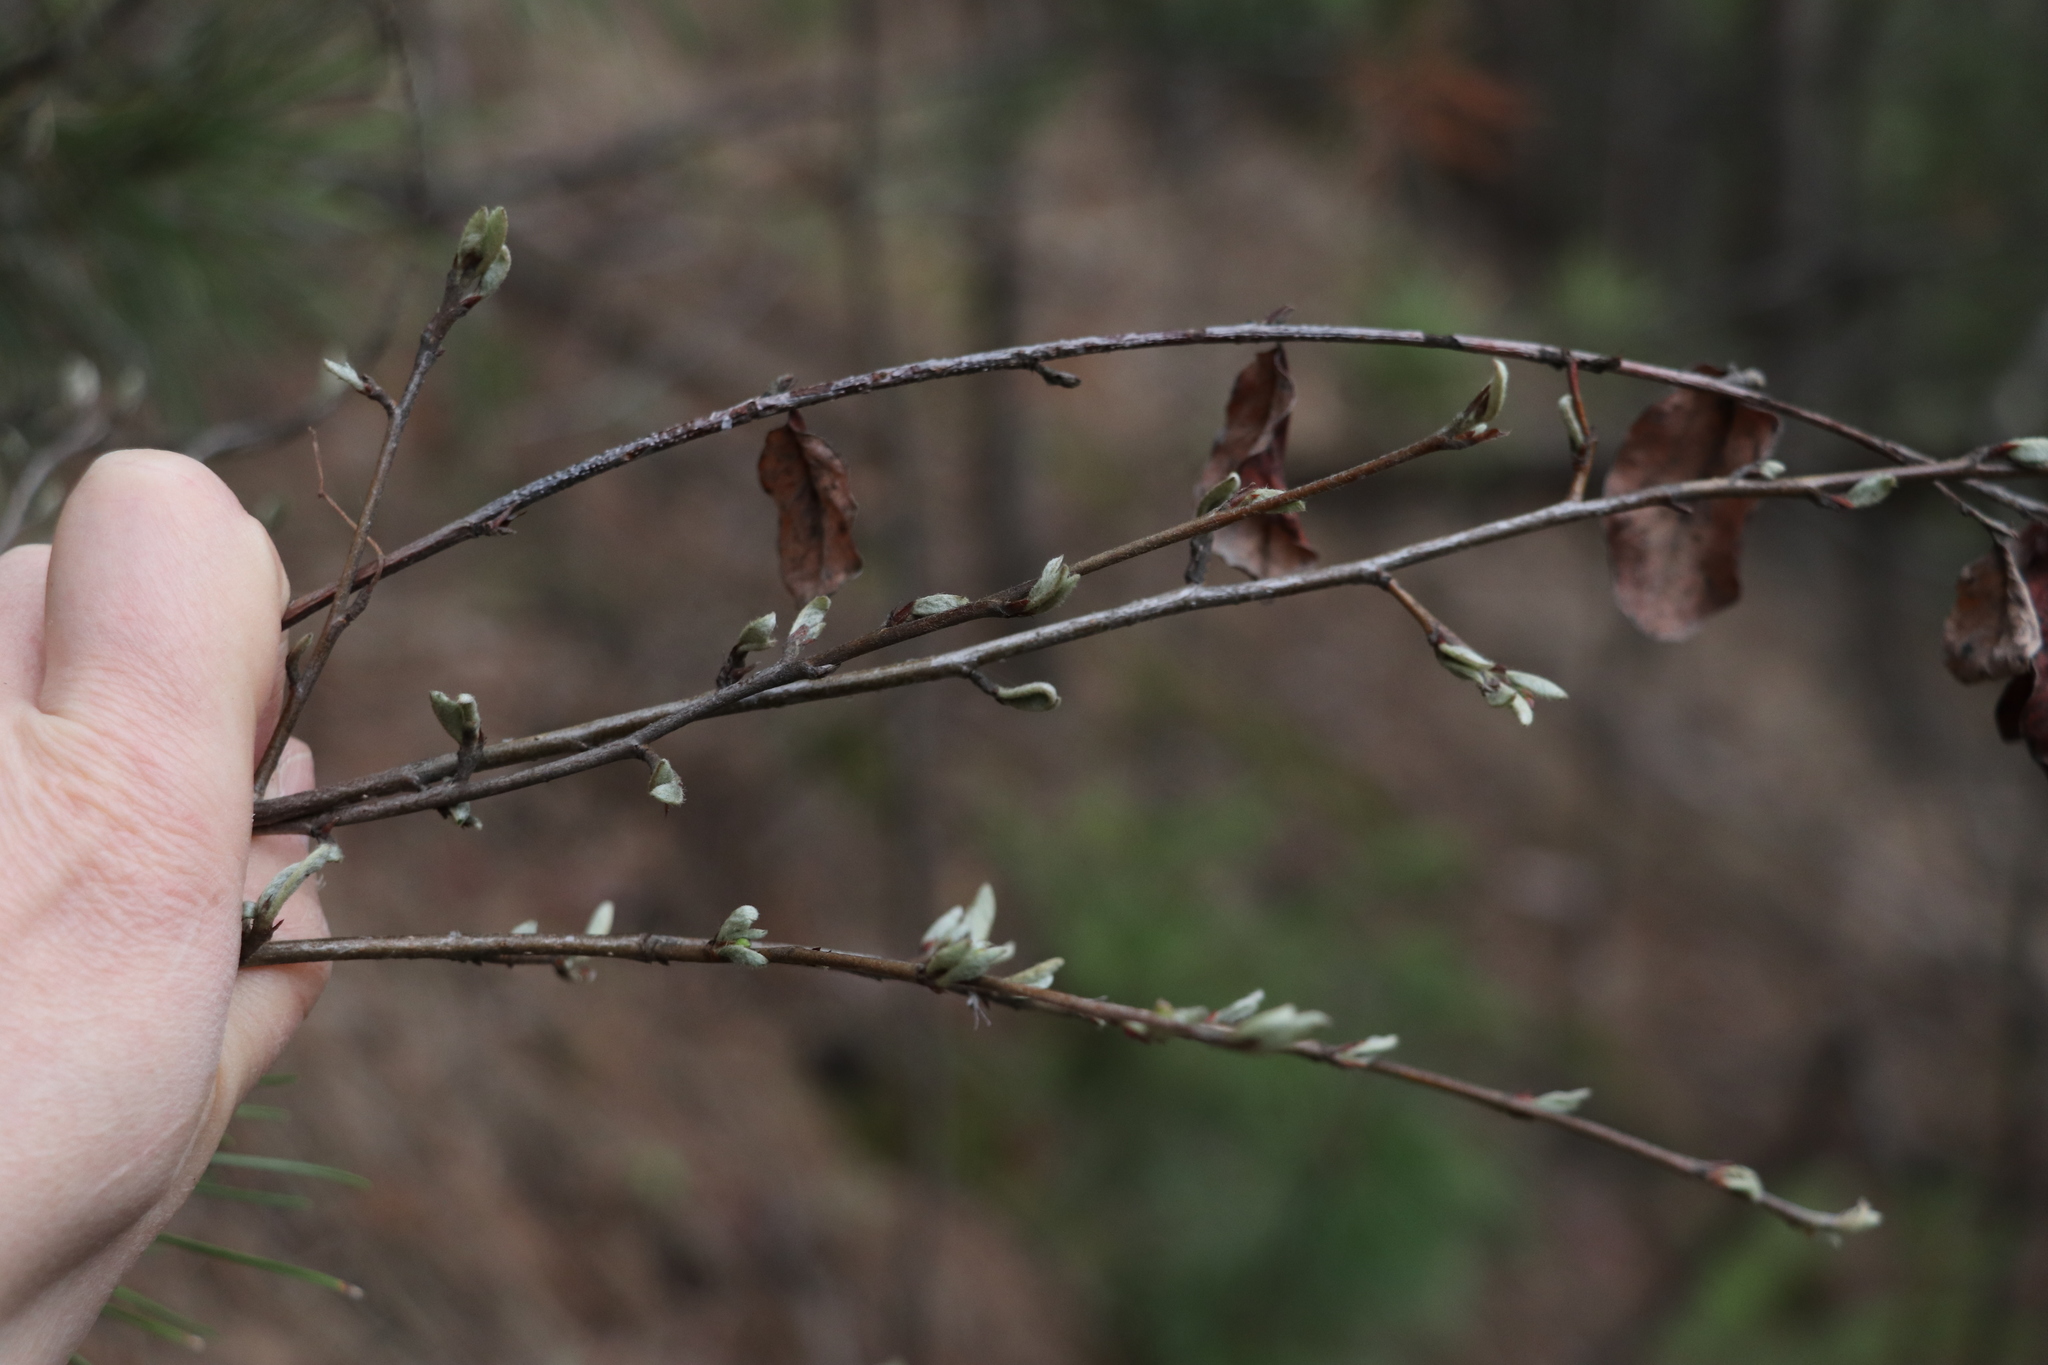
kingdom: Plantae
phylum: Tracheophyta
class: Magnoliopsida
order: Rosales
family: Rosaceae
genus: Cotoneaster
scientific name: Cotoneaster melanocarpus
